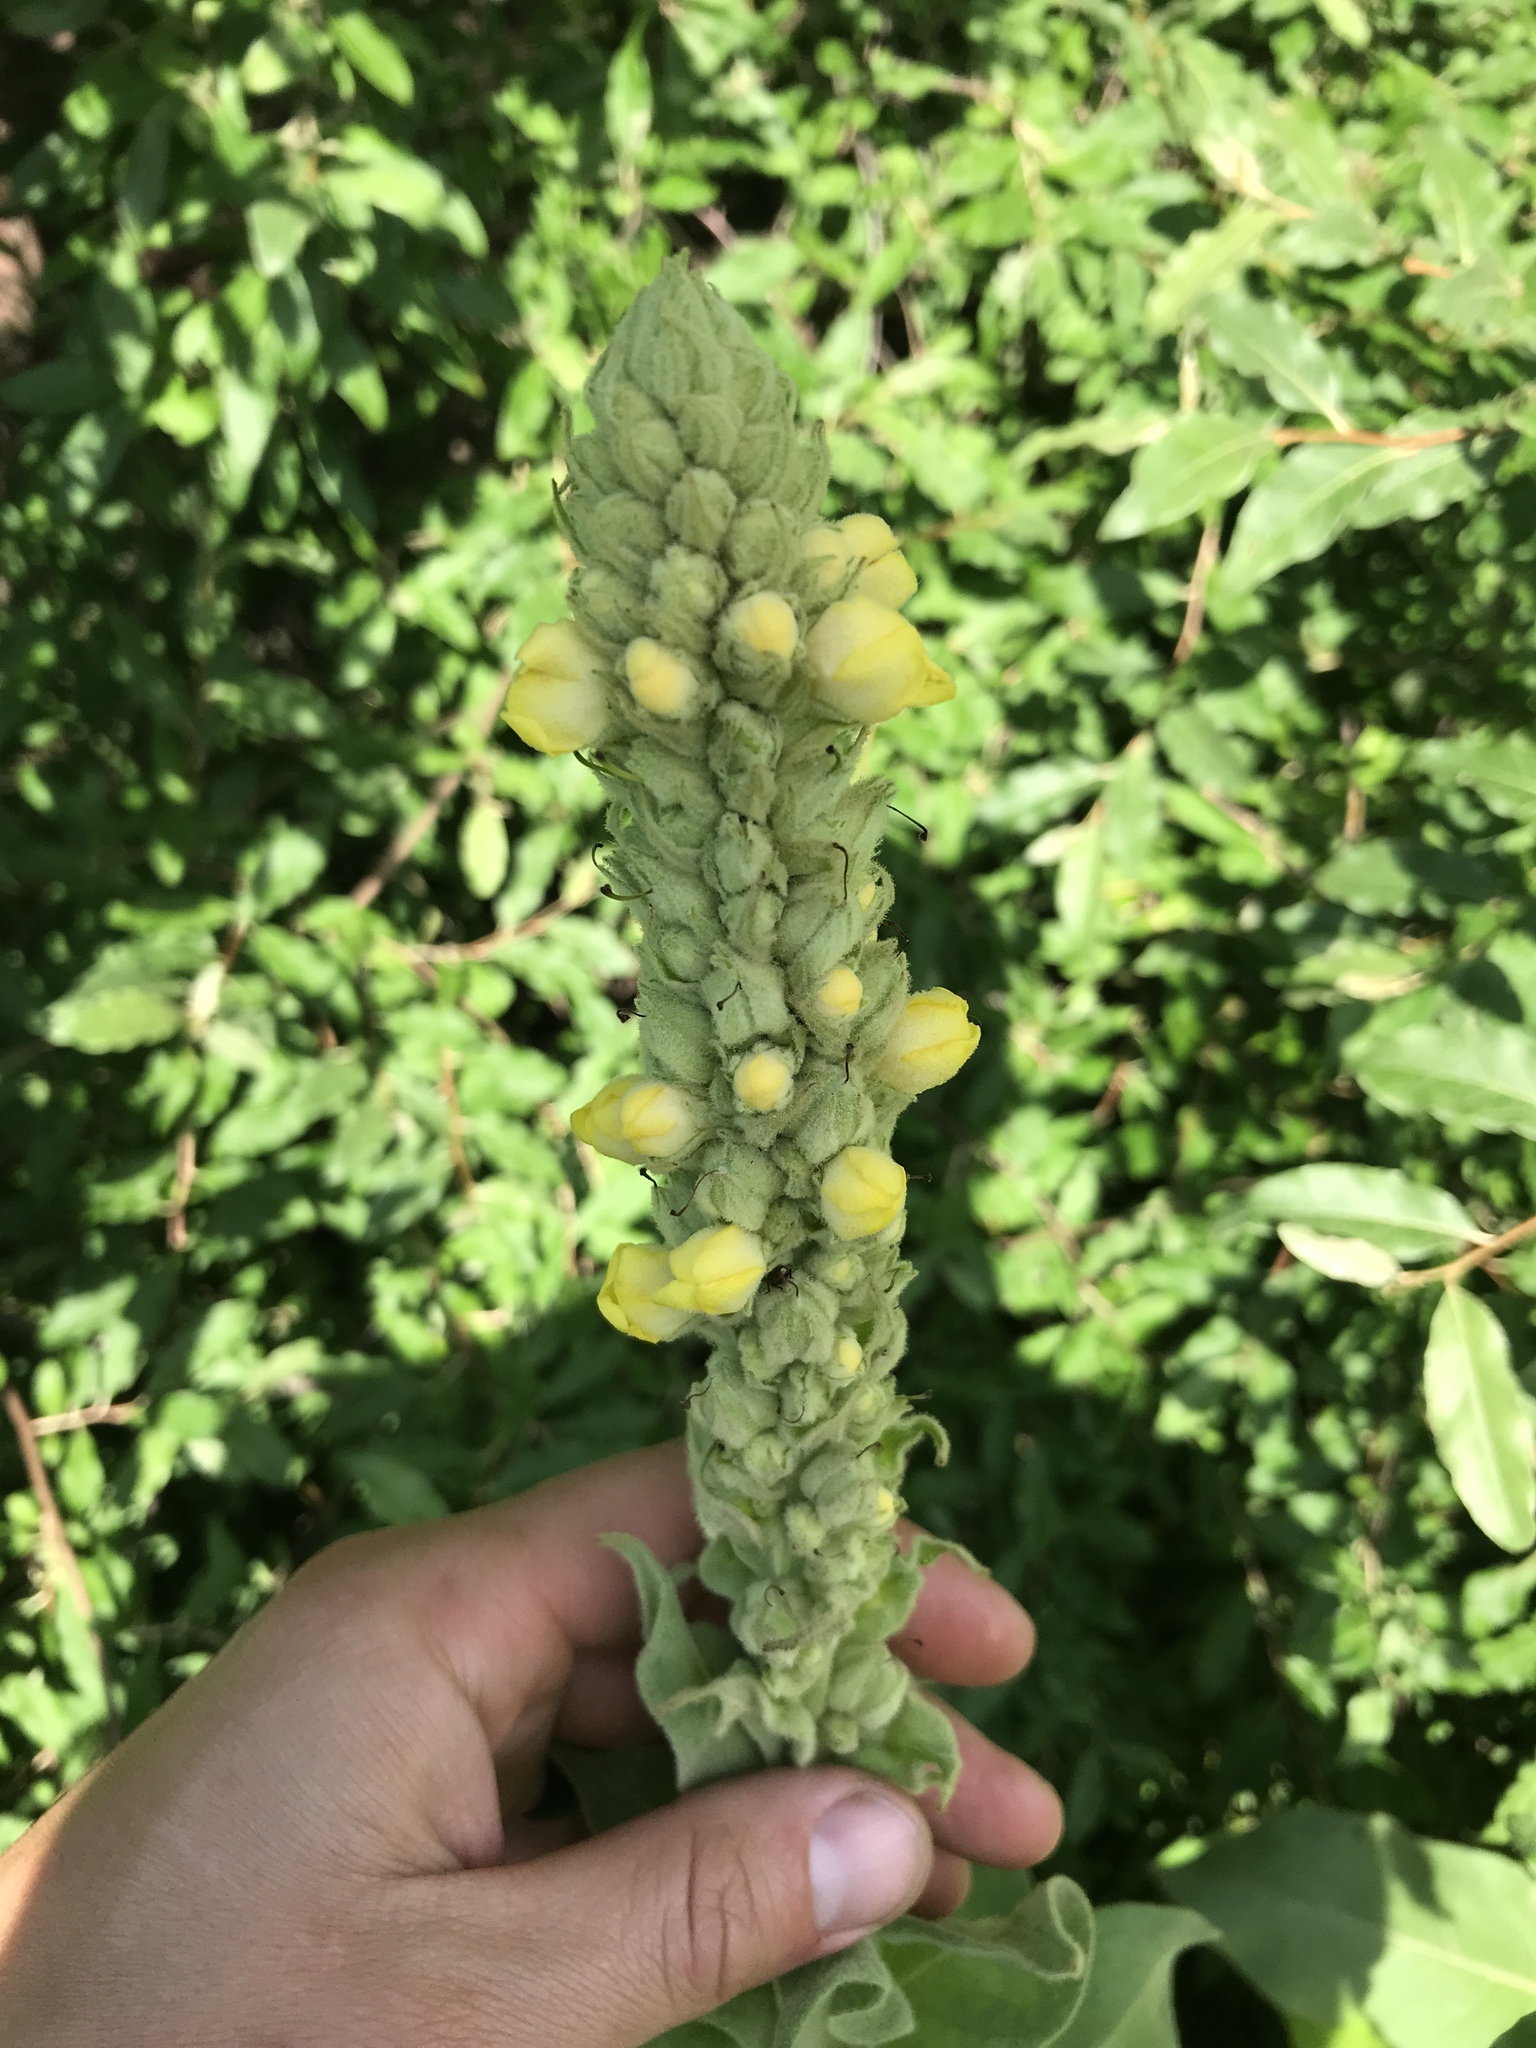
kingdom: Plantae
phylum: Tracheophyta
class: Magnoliopsida
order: Lamiales
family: Scrophulariaceae
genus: Verbascum
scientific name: Verbascum thapsus
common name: Common mullein
